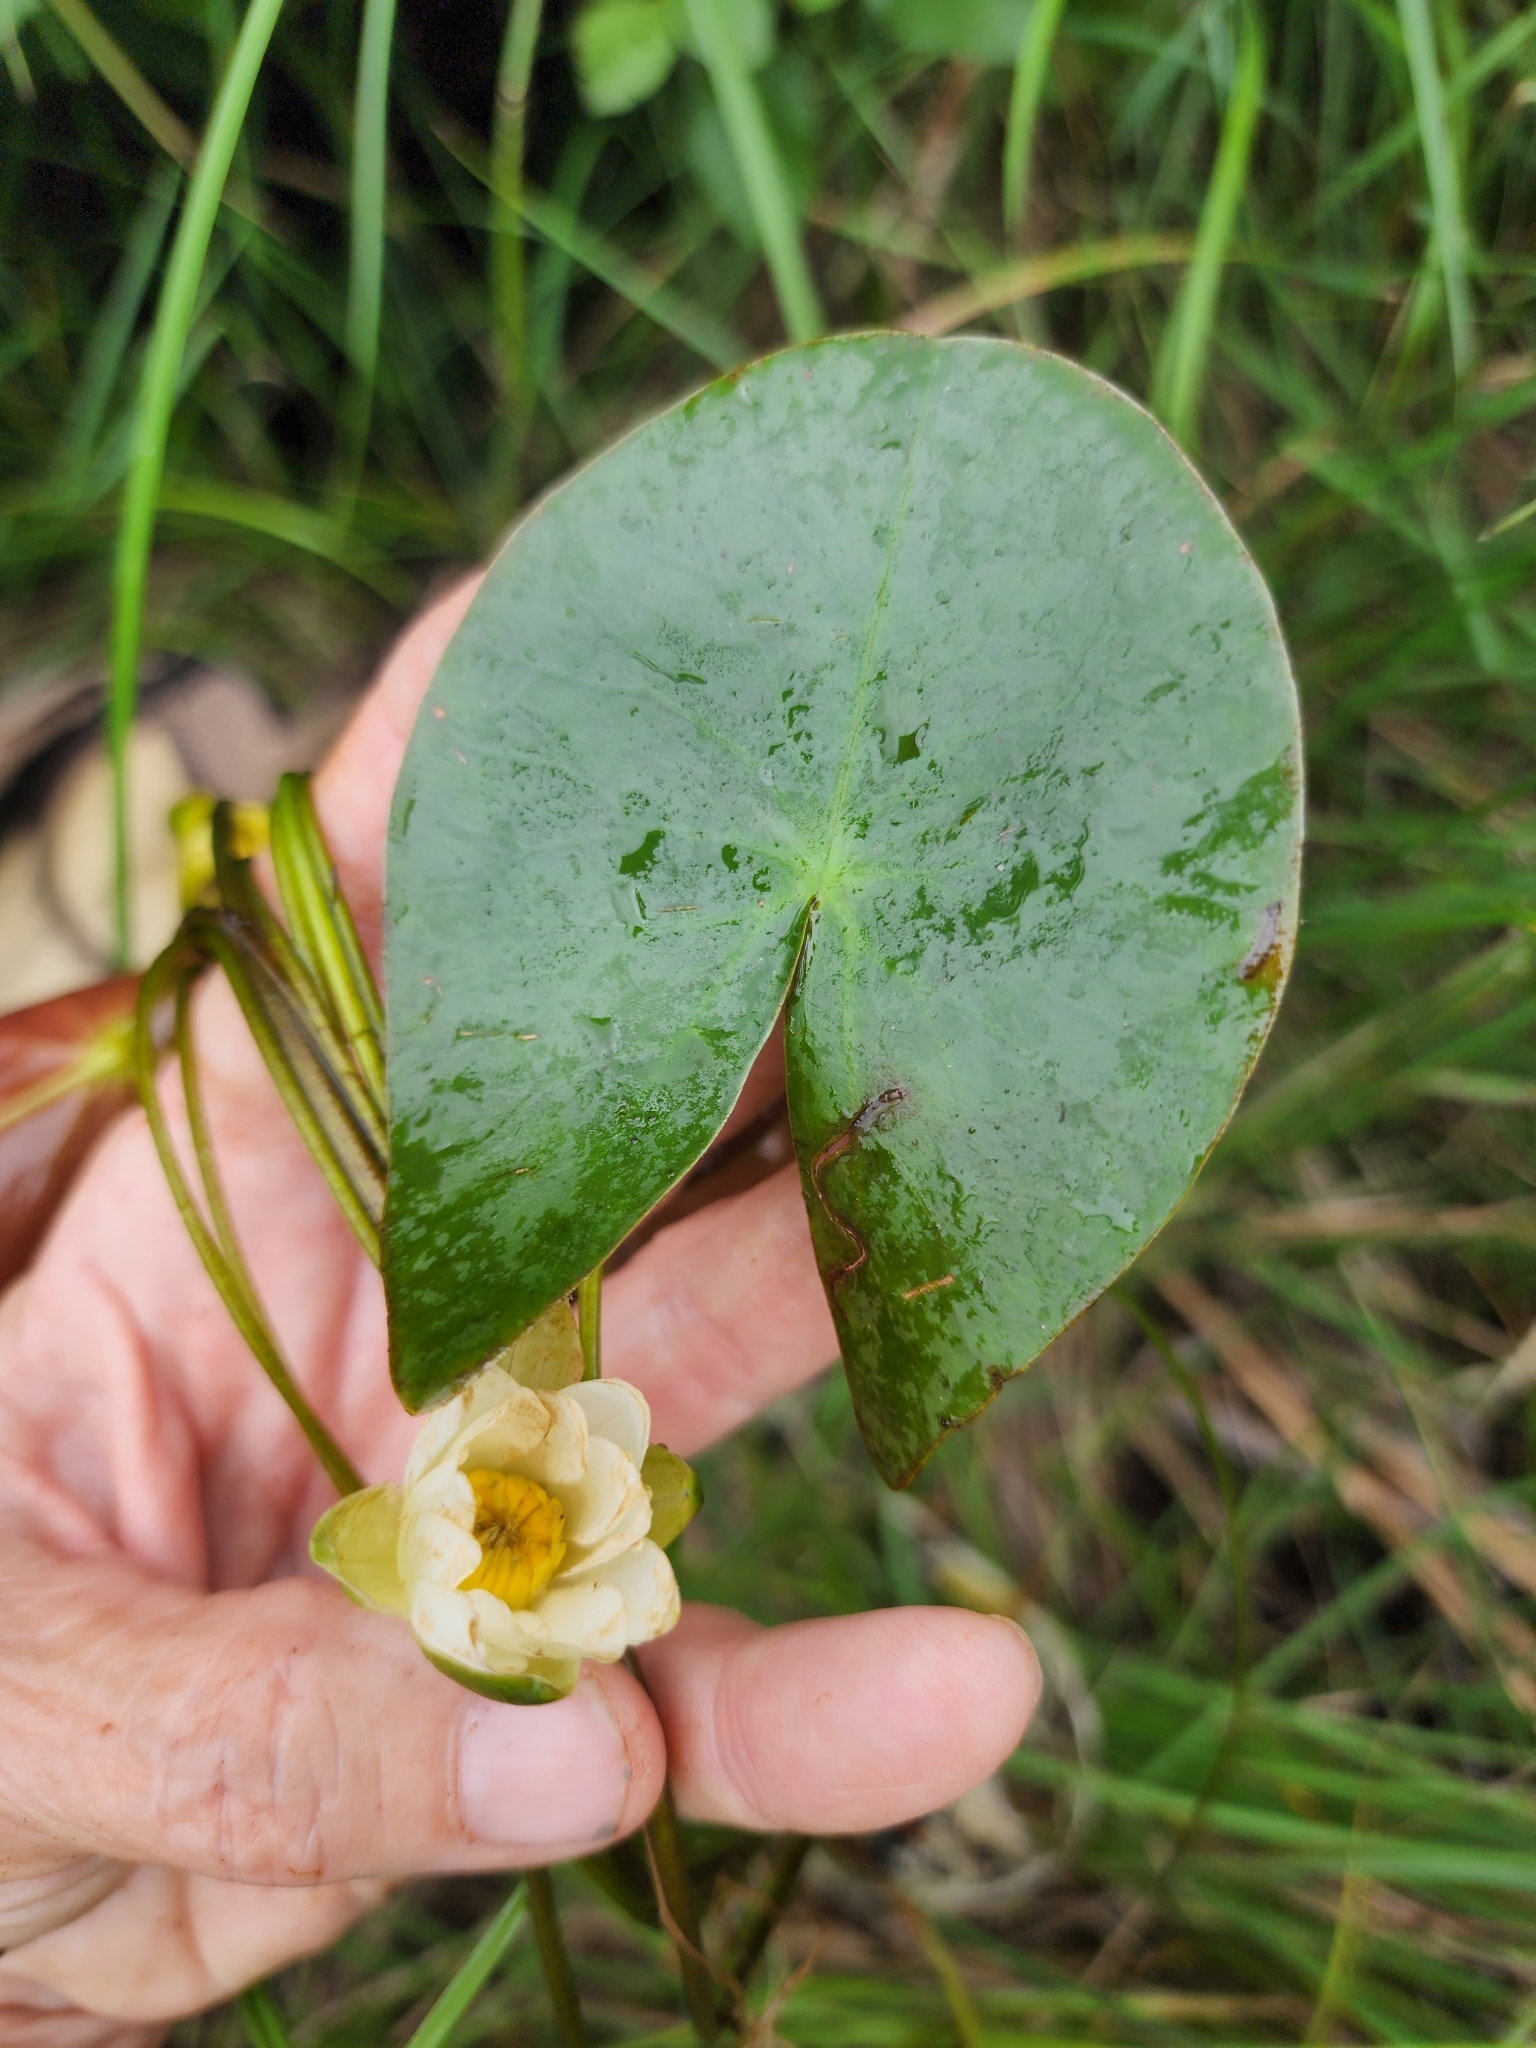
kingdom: Plantae
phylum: Tracheophyta
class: Magnoliopsida
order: Nymphaeales
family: Nymphaeaceae
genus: Nymphaea
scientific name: Nymphaea leibergii
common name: Dwarf water-lily
